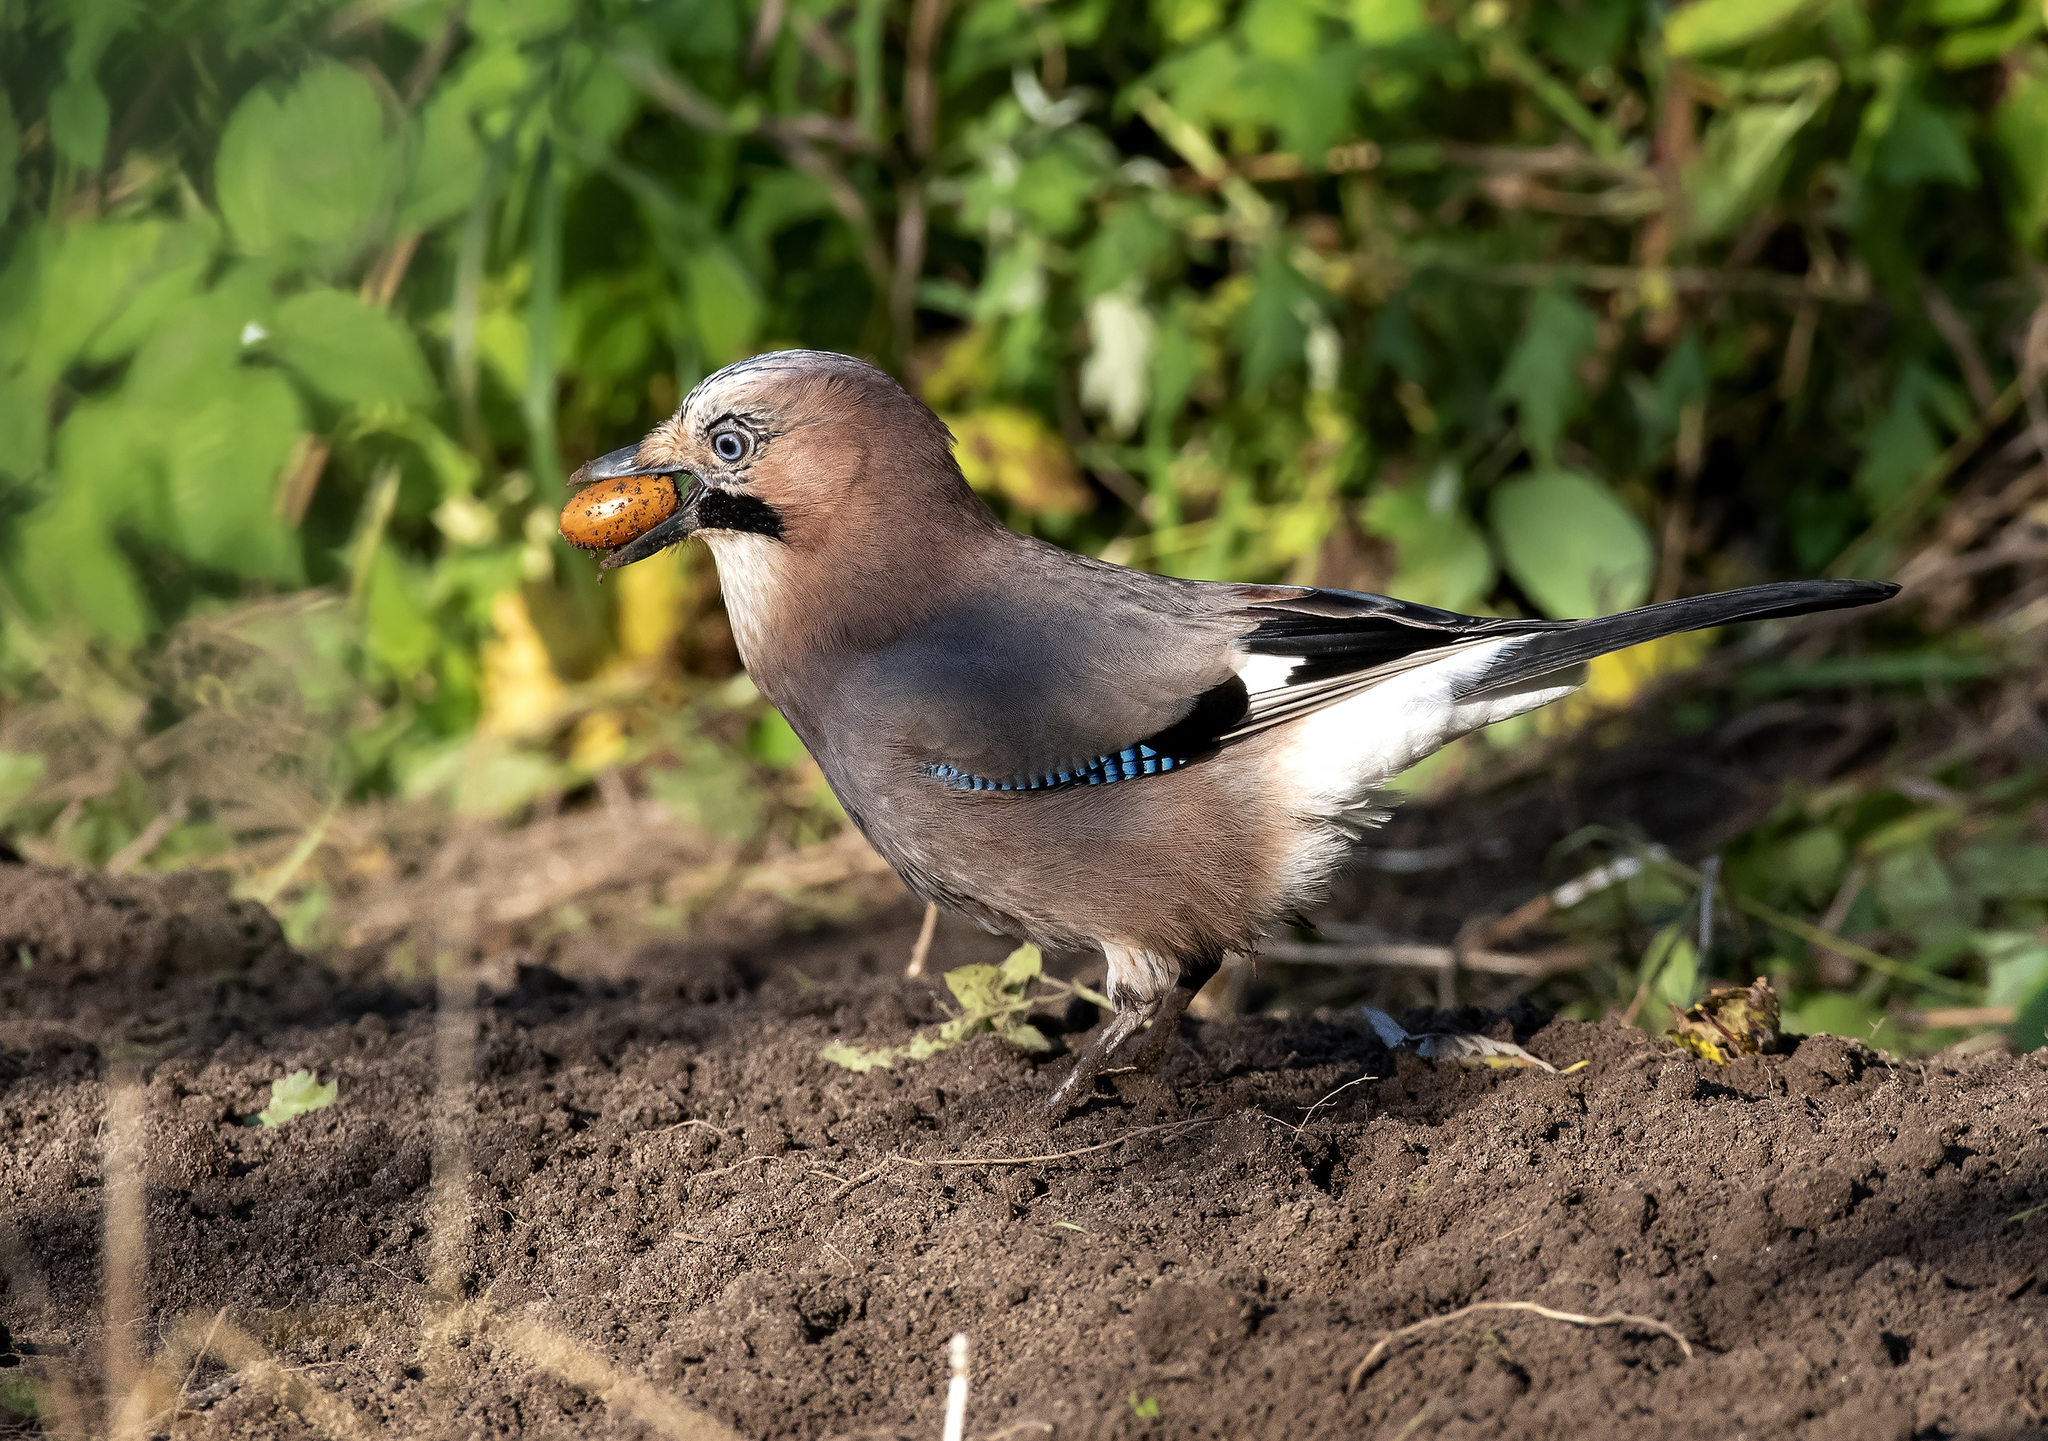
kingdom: Animalia
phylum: Chordata
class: Aves
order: Passeriformes
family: Corvidae
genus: Garrulus
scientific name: Garrulus glandarius
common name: Eurasian jay
